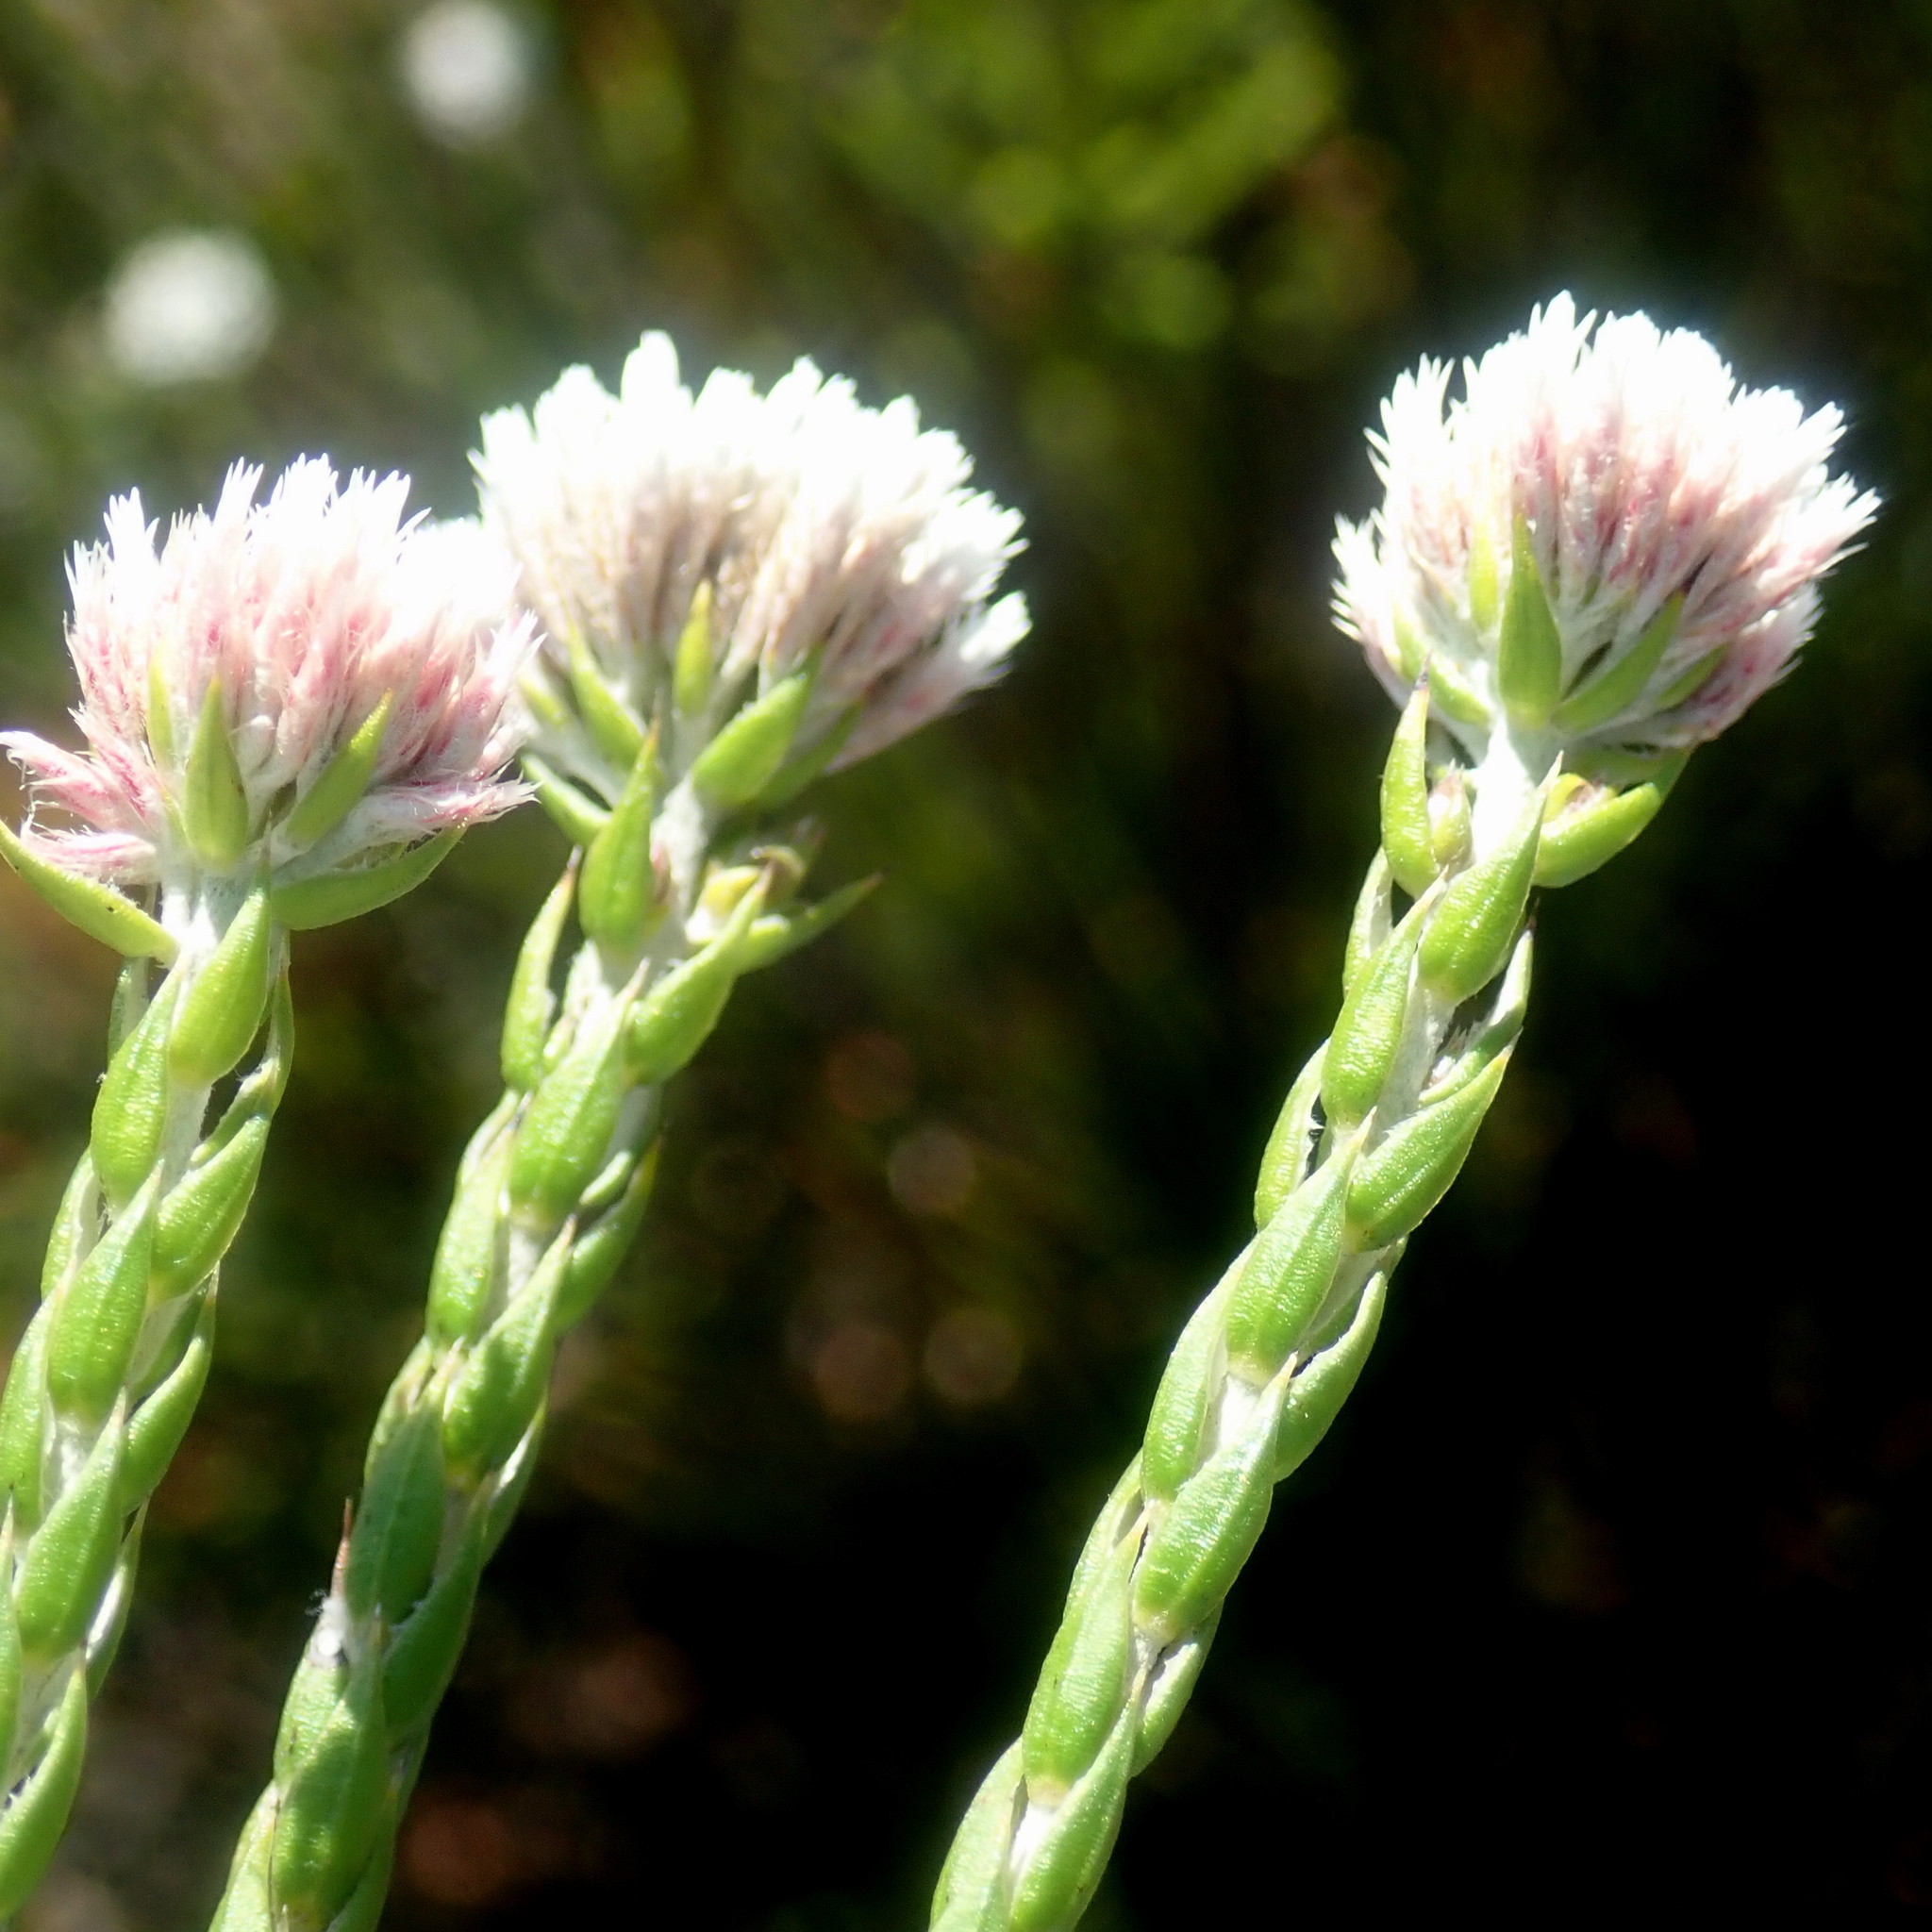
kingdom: Plantae
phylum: Tracheophyta
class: Magnoliopsida
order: Asterales
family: Asteraceae
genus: Metalasia
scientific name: Metalasia pulcherrima
